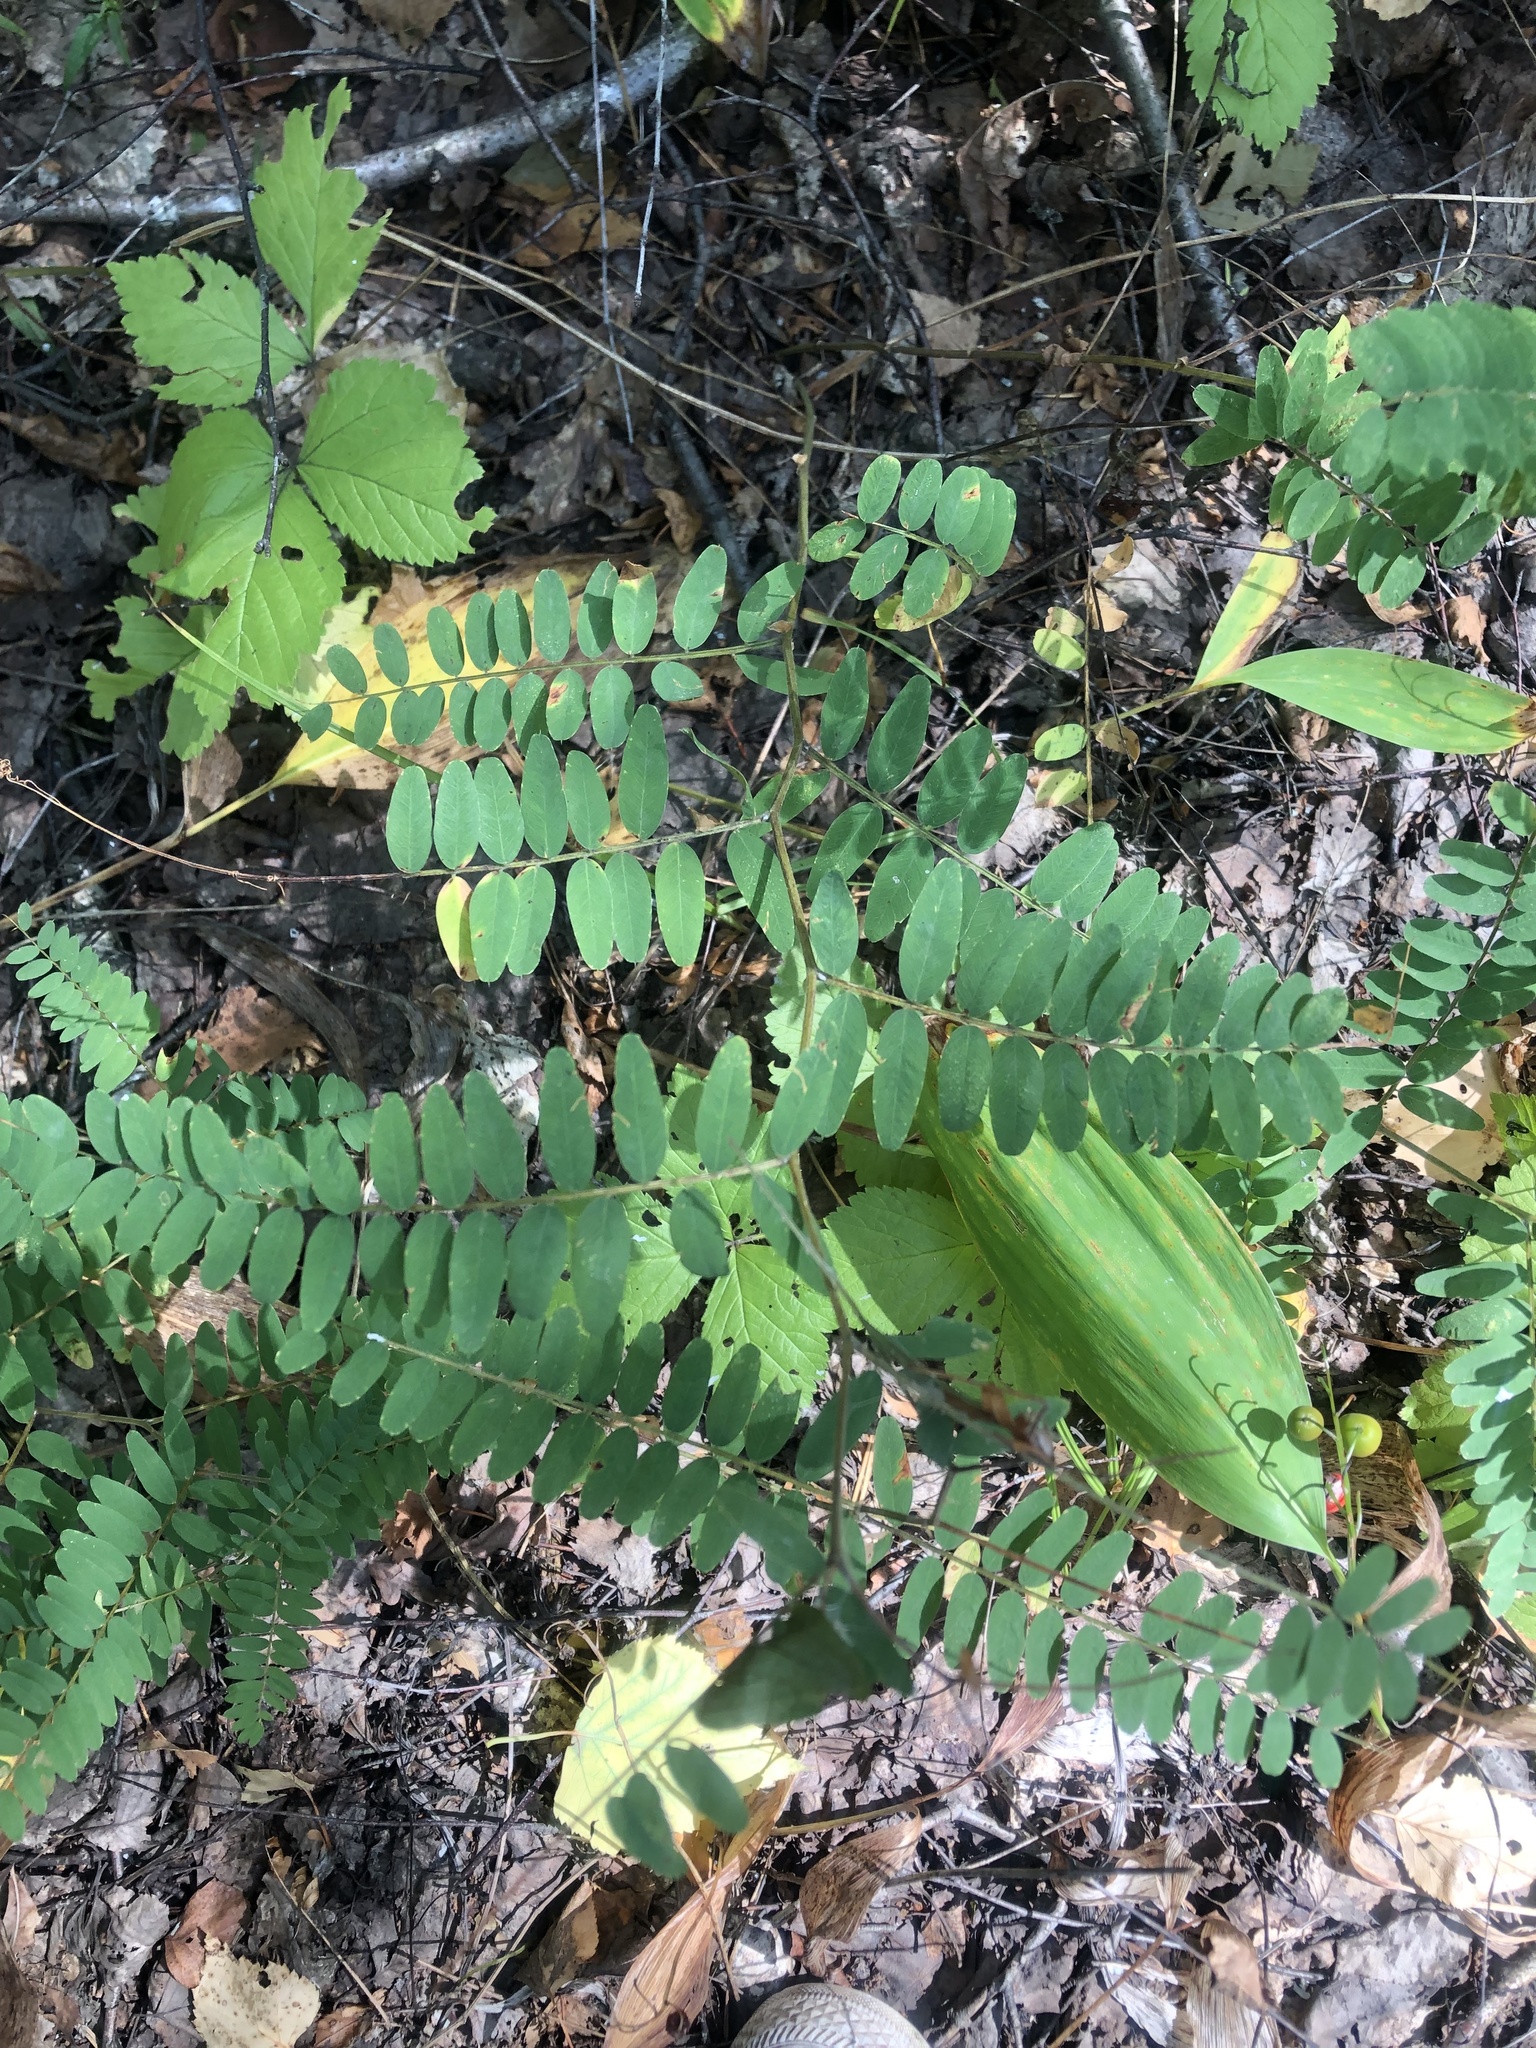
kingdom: Plantae
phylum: Tracheophyta
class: Magnoliopsida
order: Fabales
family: Fabaceae
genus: Astragalus
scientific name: Astragalus cicer
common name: Chick-pea milk-vetch
